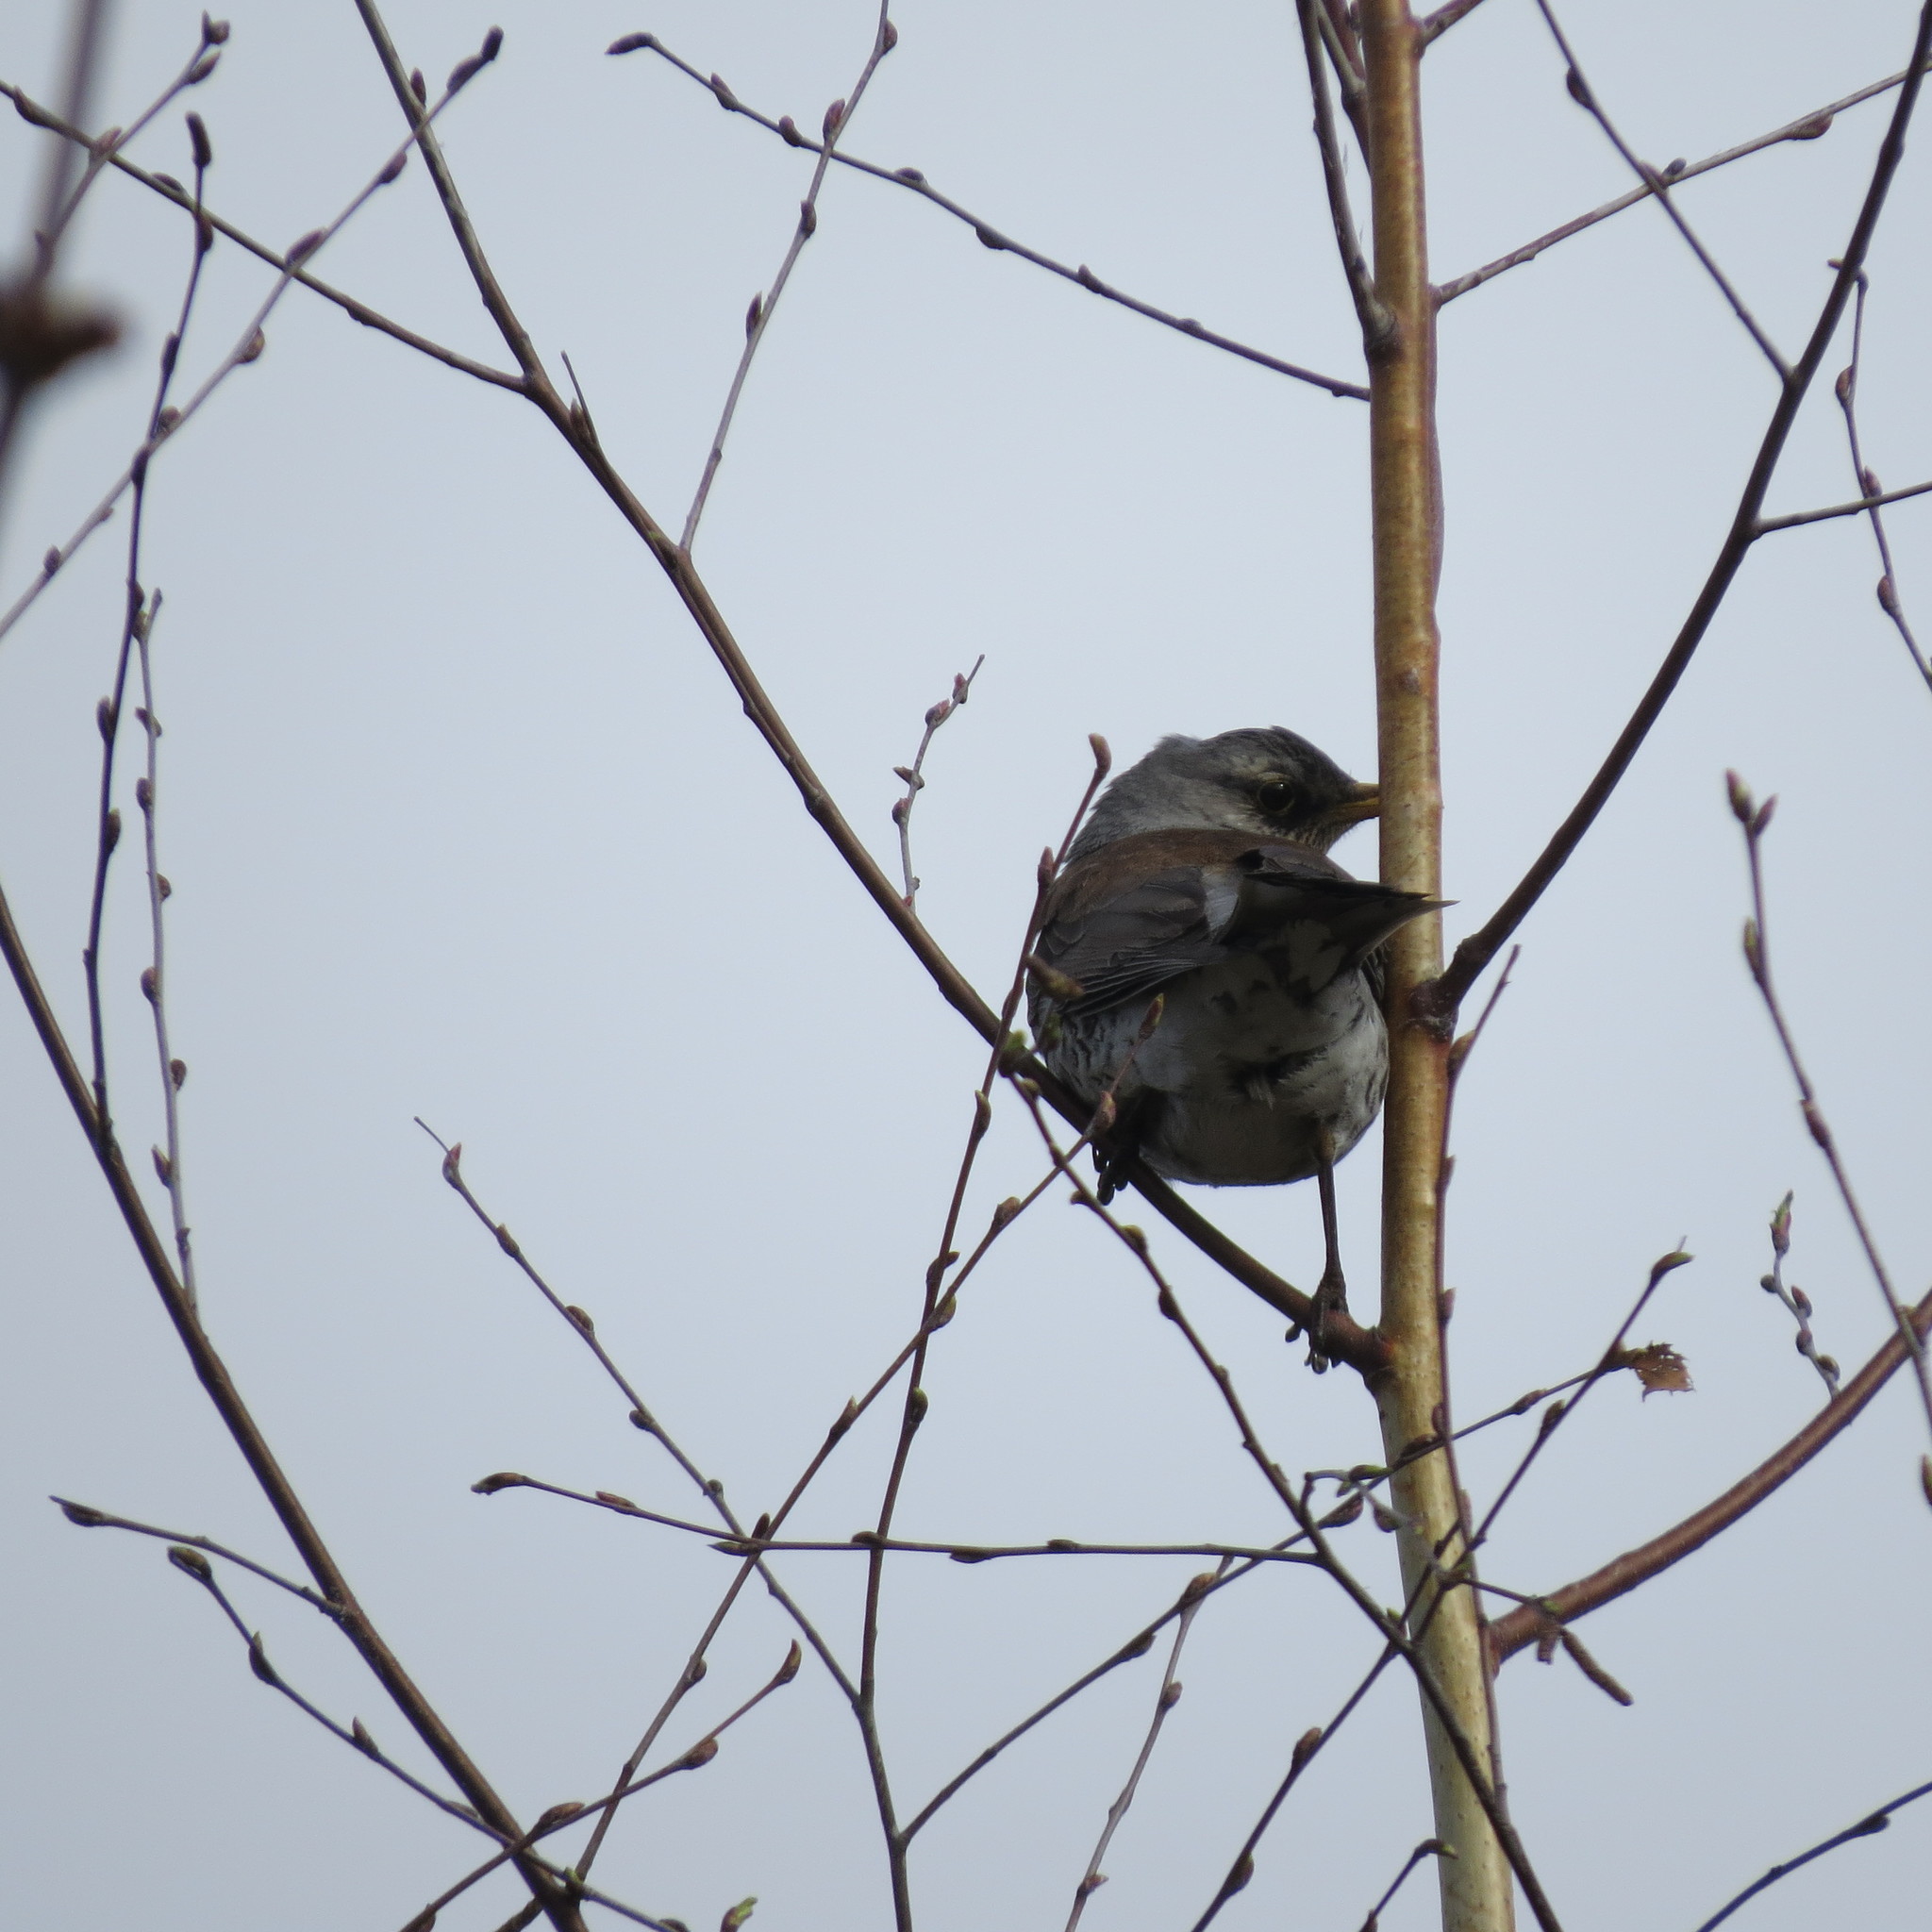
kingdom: Animalia
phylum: Chordata
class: Aves
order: Passeriformes
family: Turdidae
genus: Turdus
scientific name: Turdus pilaris
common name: Fieldfare
